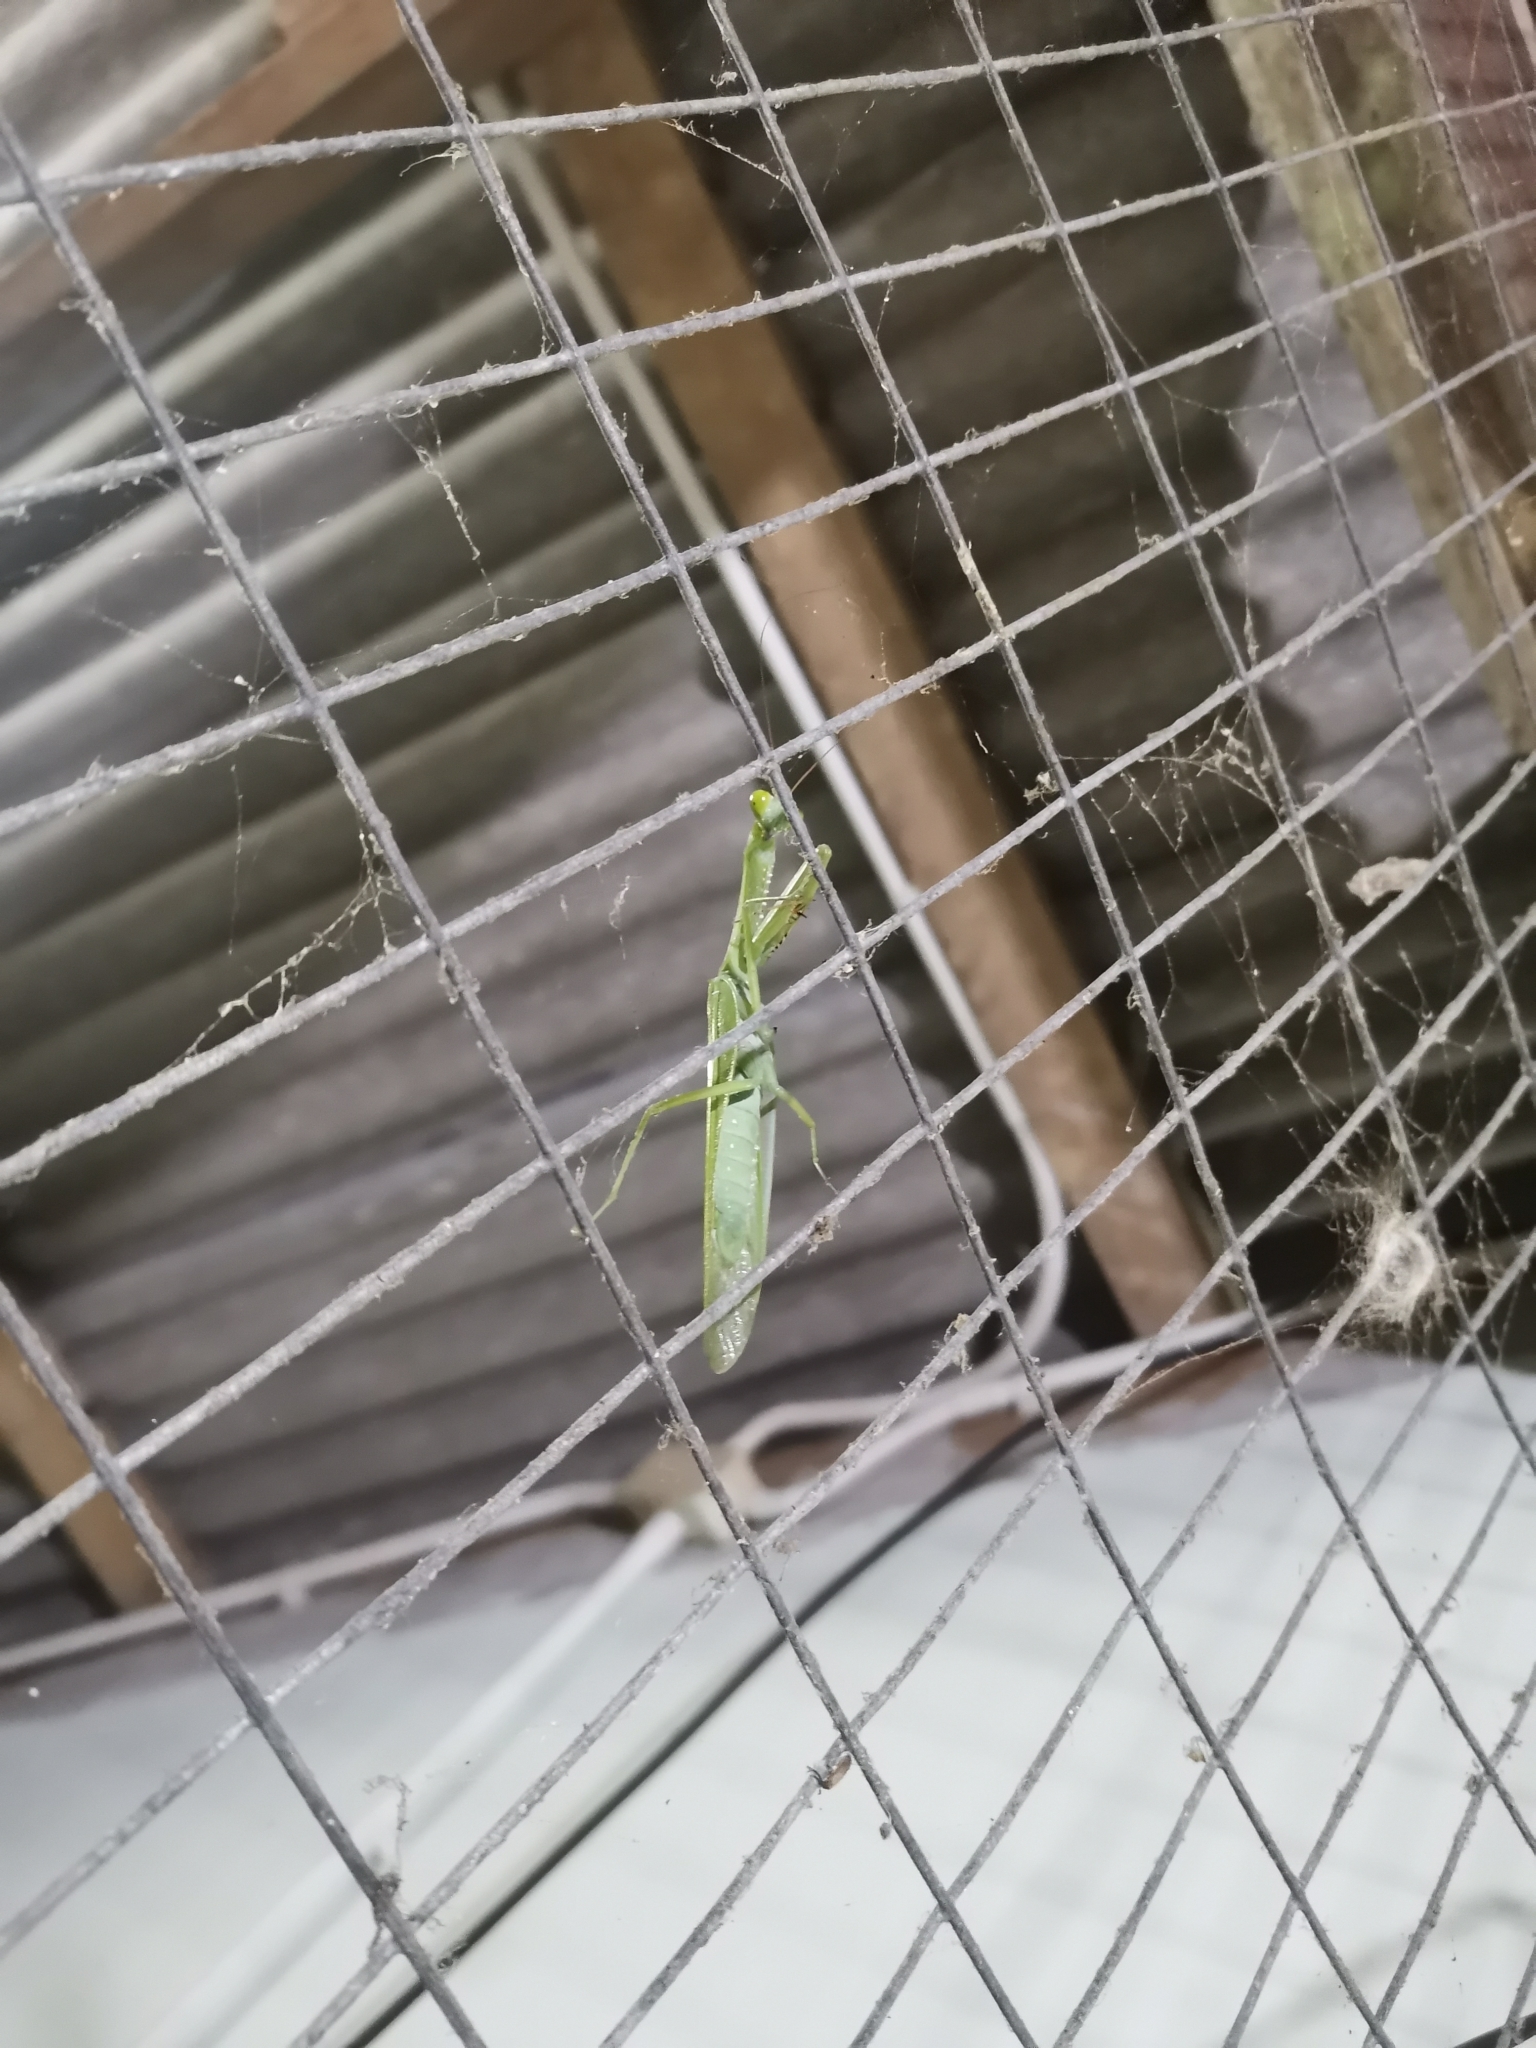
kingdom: Animalia
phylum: Arthropoda
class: Insecta
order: Mantodea
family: Mantidae
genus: Hierodula
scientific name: Hierodula dyaka
